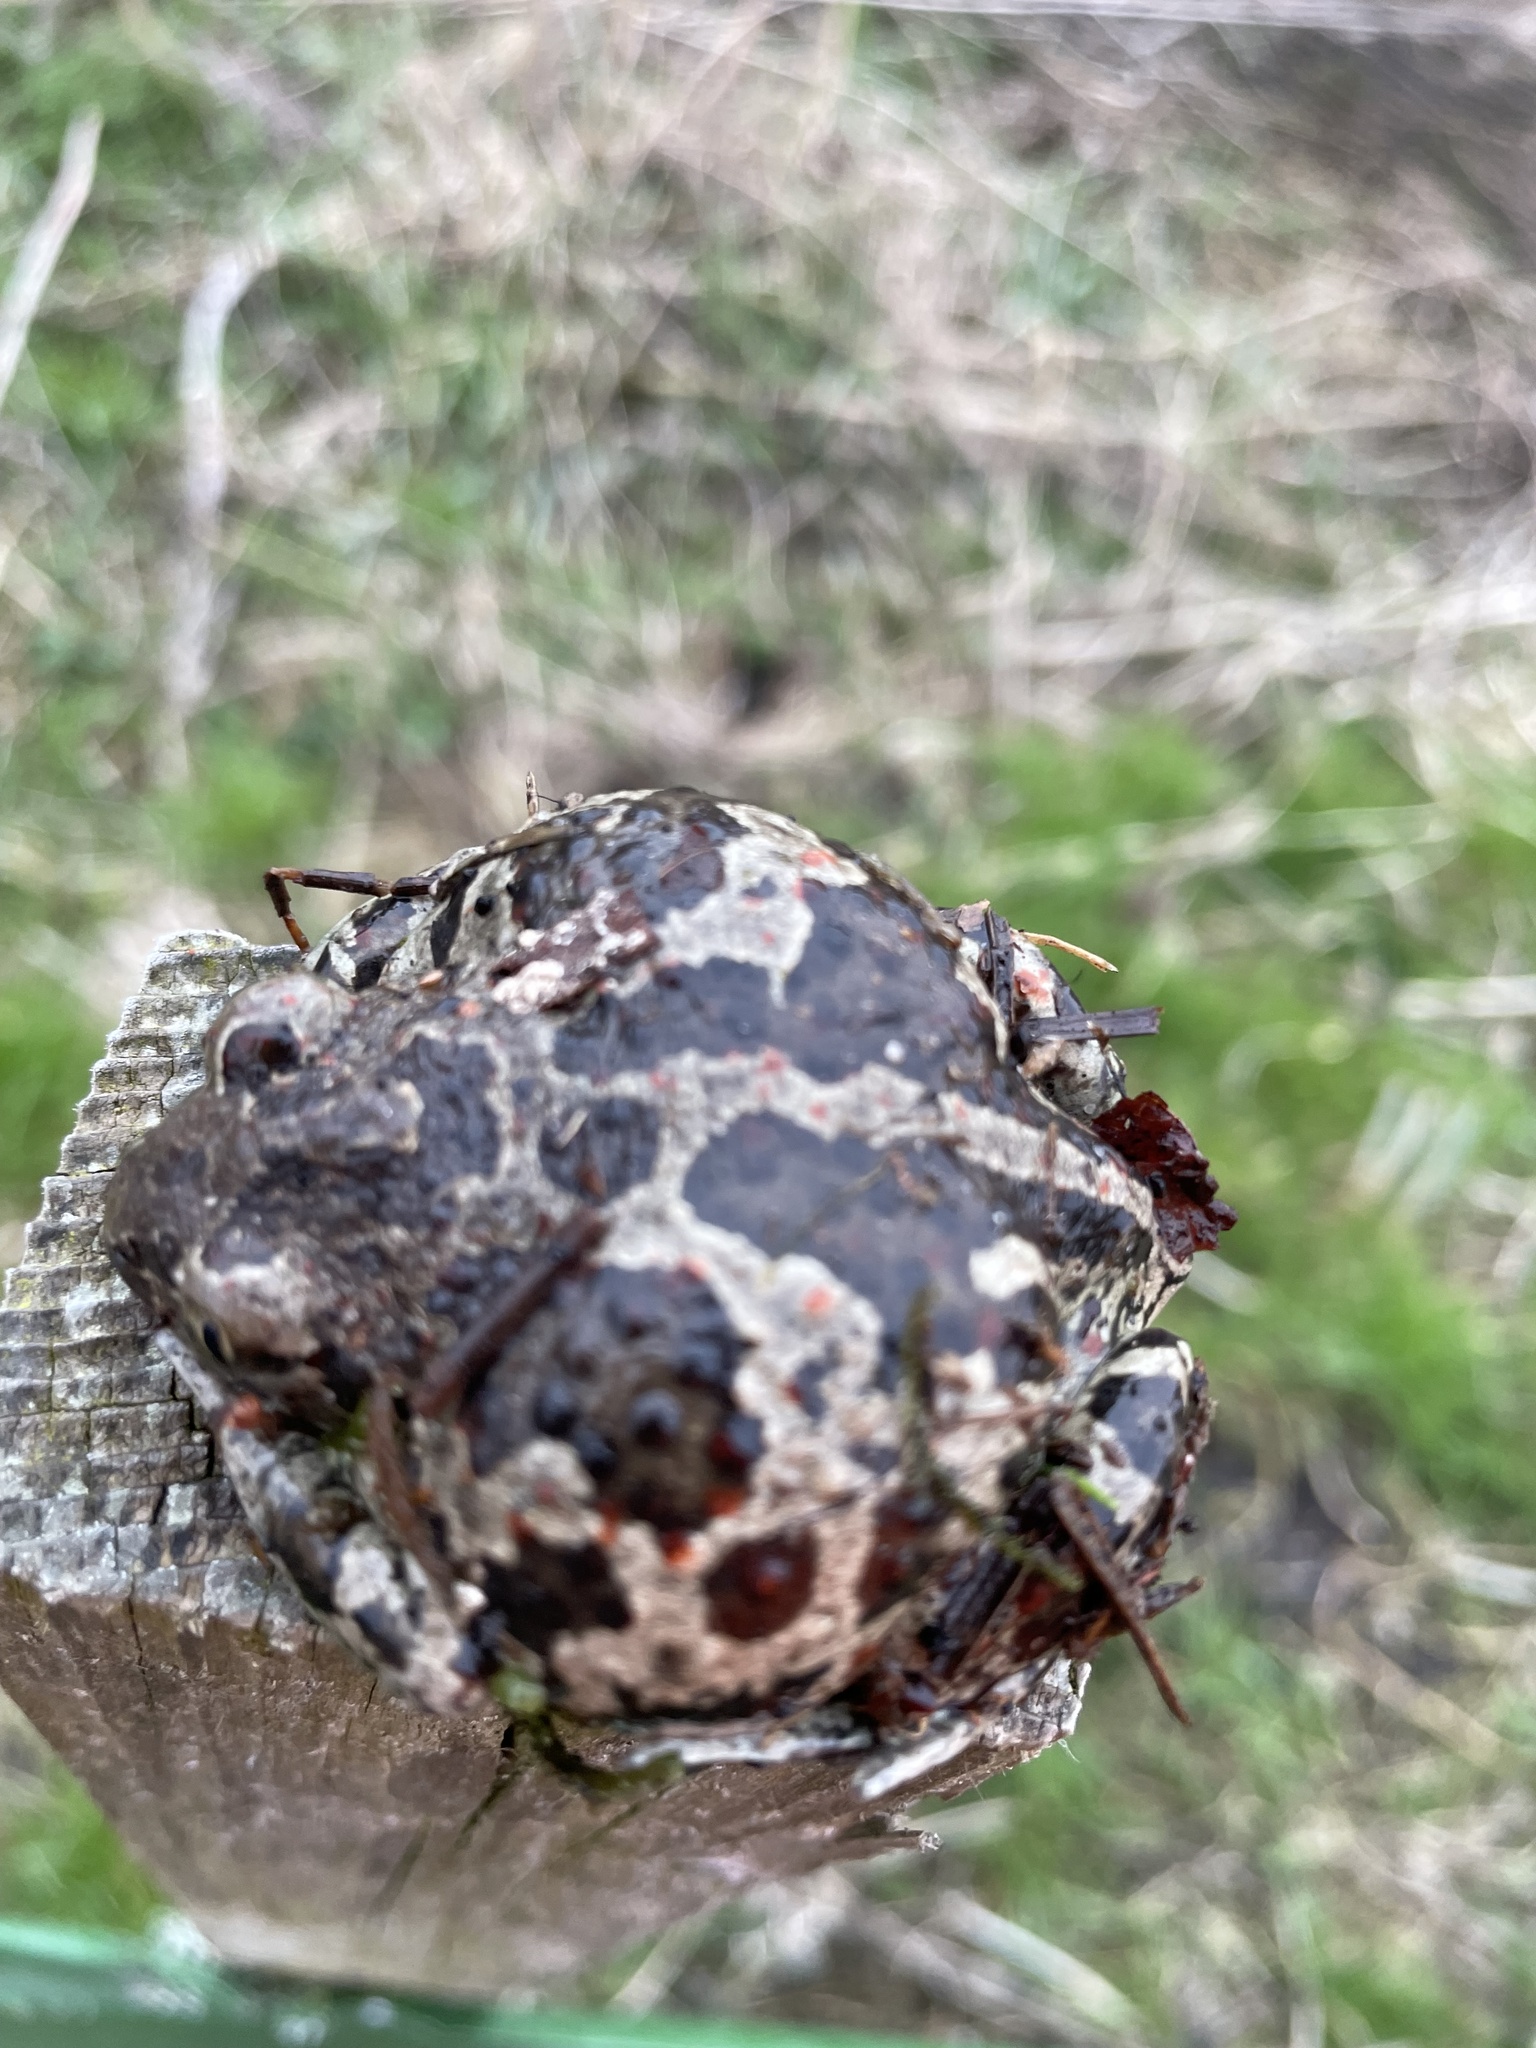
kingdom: Animalia
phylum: Chordata
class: Amphibia
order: Anura
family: Pelobatidae
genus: Pelobates
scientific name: Pelobates fuscus
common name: Common eurasian spadefoot toad
